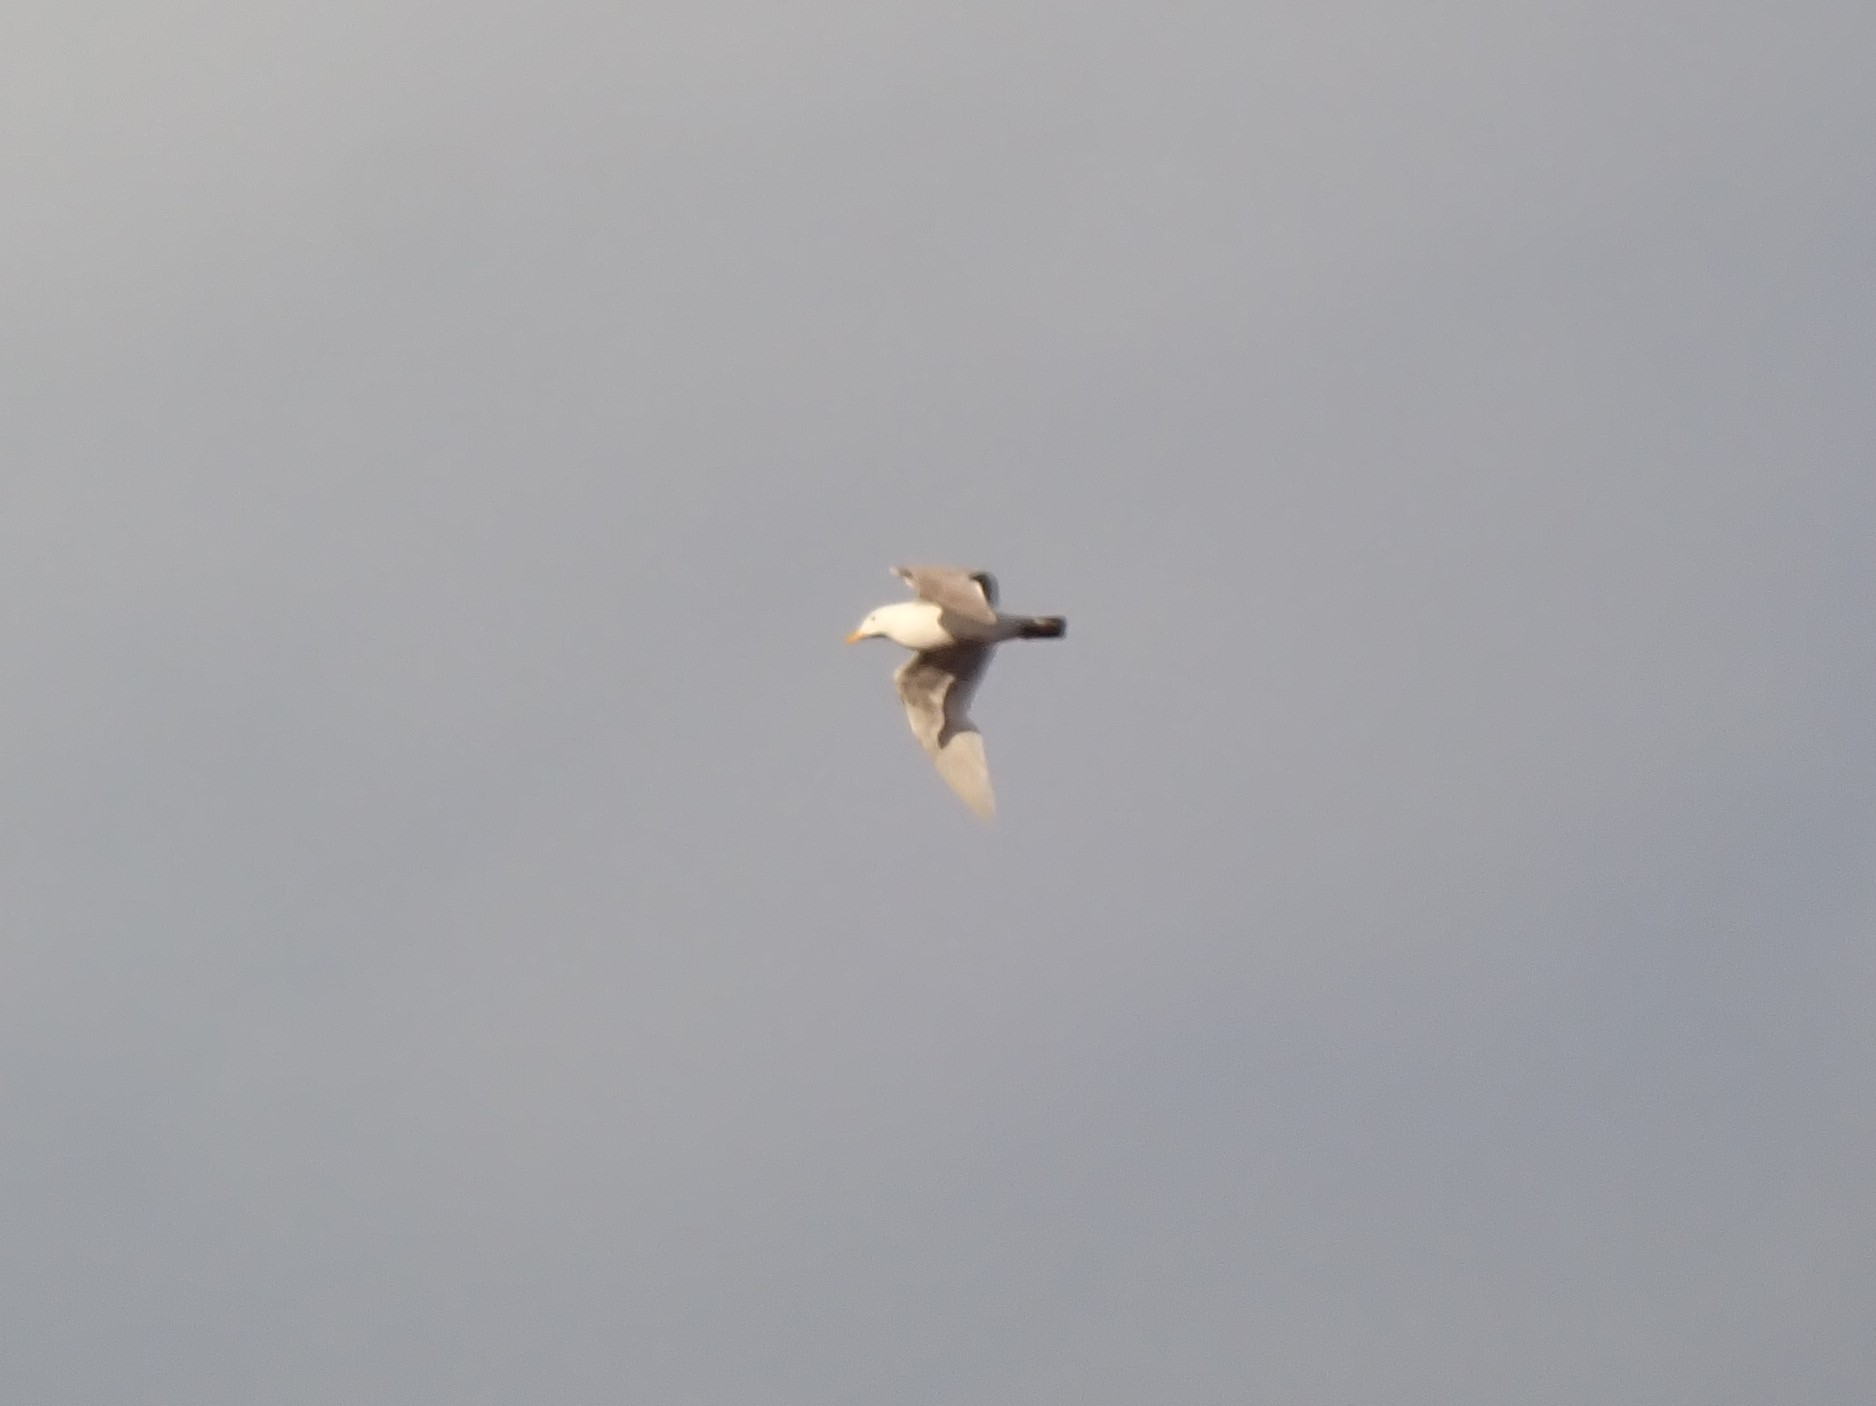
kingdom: Animalia
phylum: Chordata
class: Aves
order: Charadriiformes
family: Laridae
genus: Larus
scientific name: Larus
